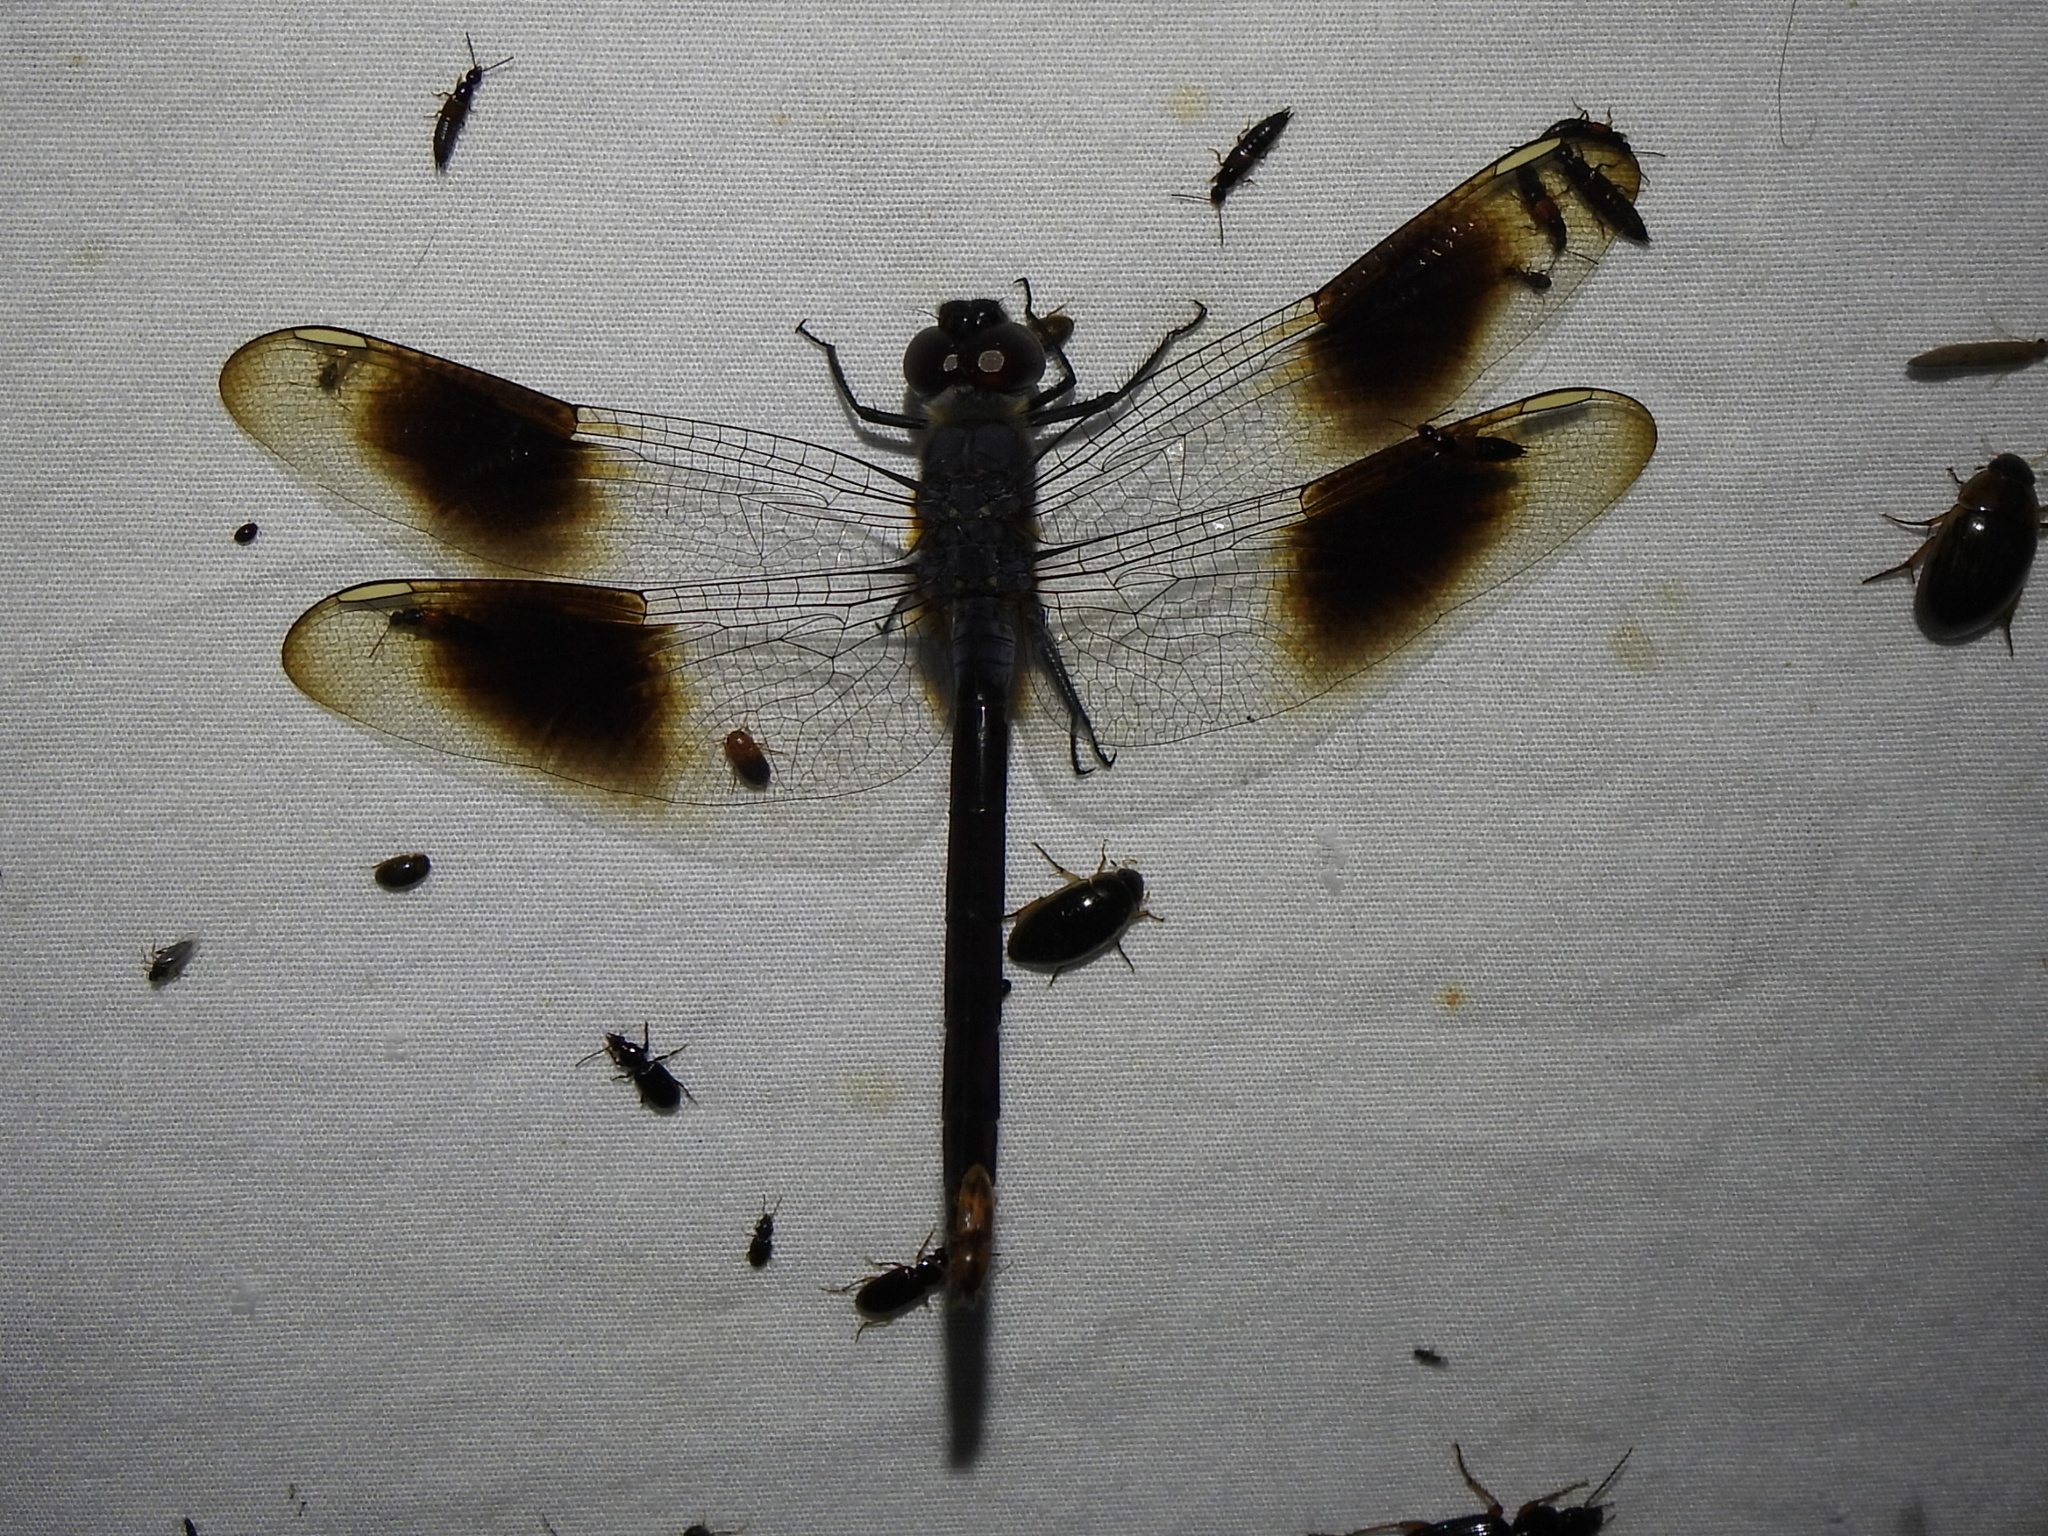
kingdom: Animalia
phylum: Arthropoda
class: Insecta
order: Odonata
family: Libellulidae
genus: Brachymesia
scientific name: Brachymesia gravida
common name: Four-spotted pennant
